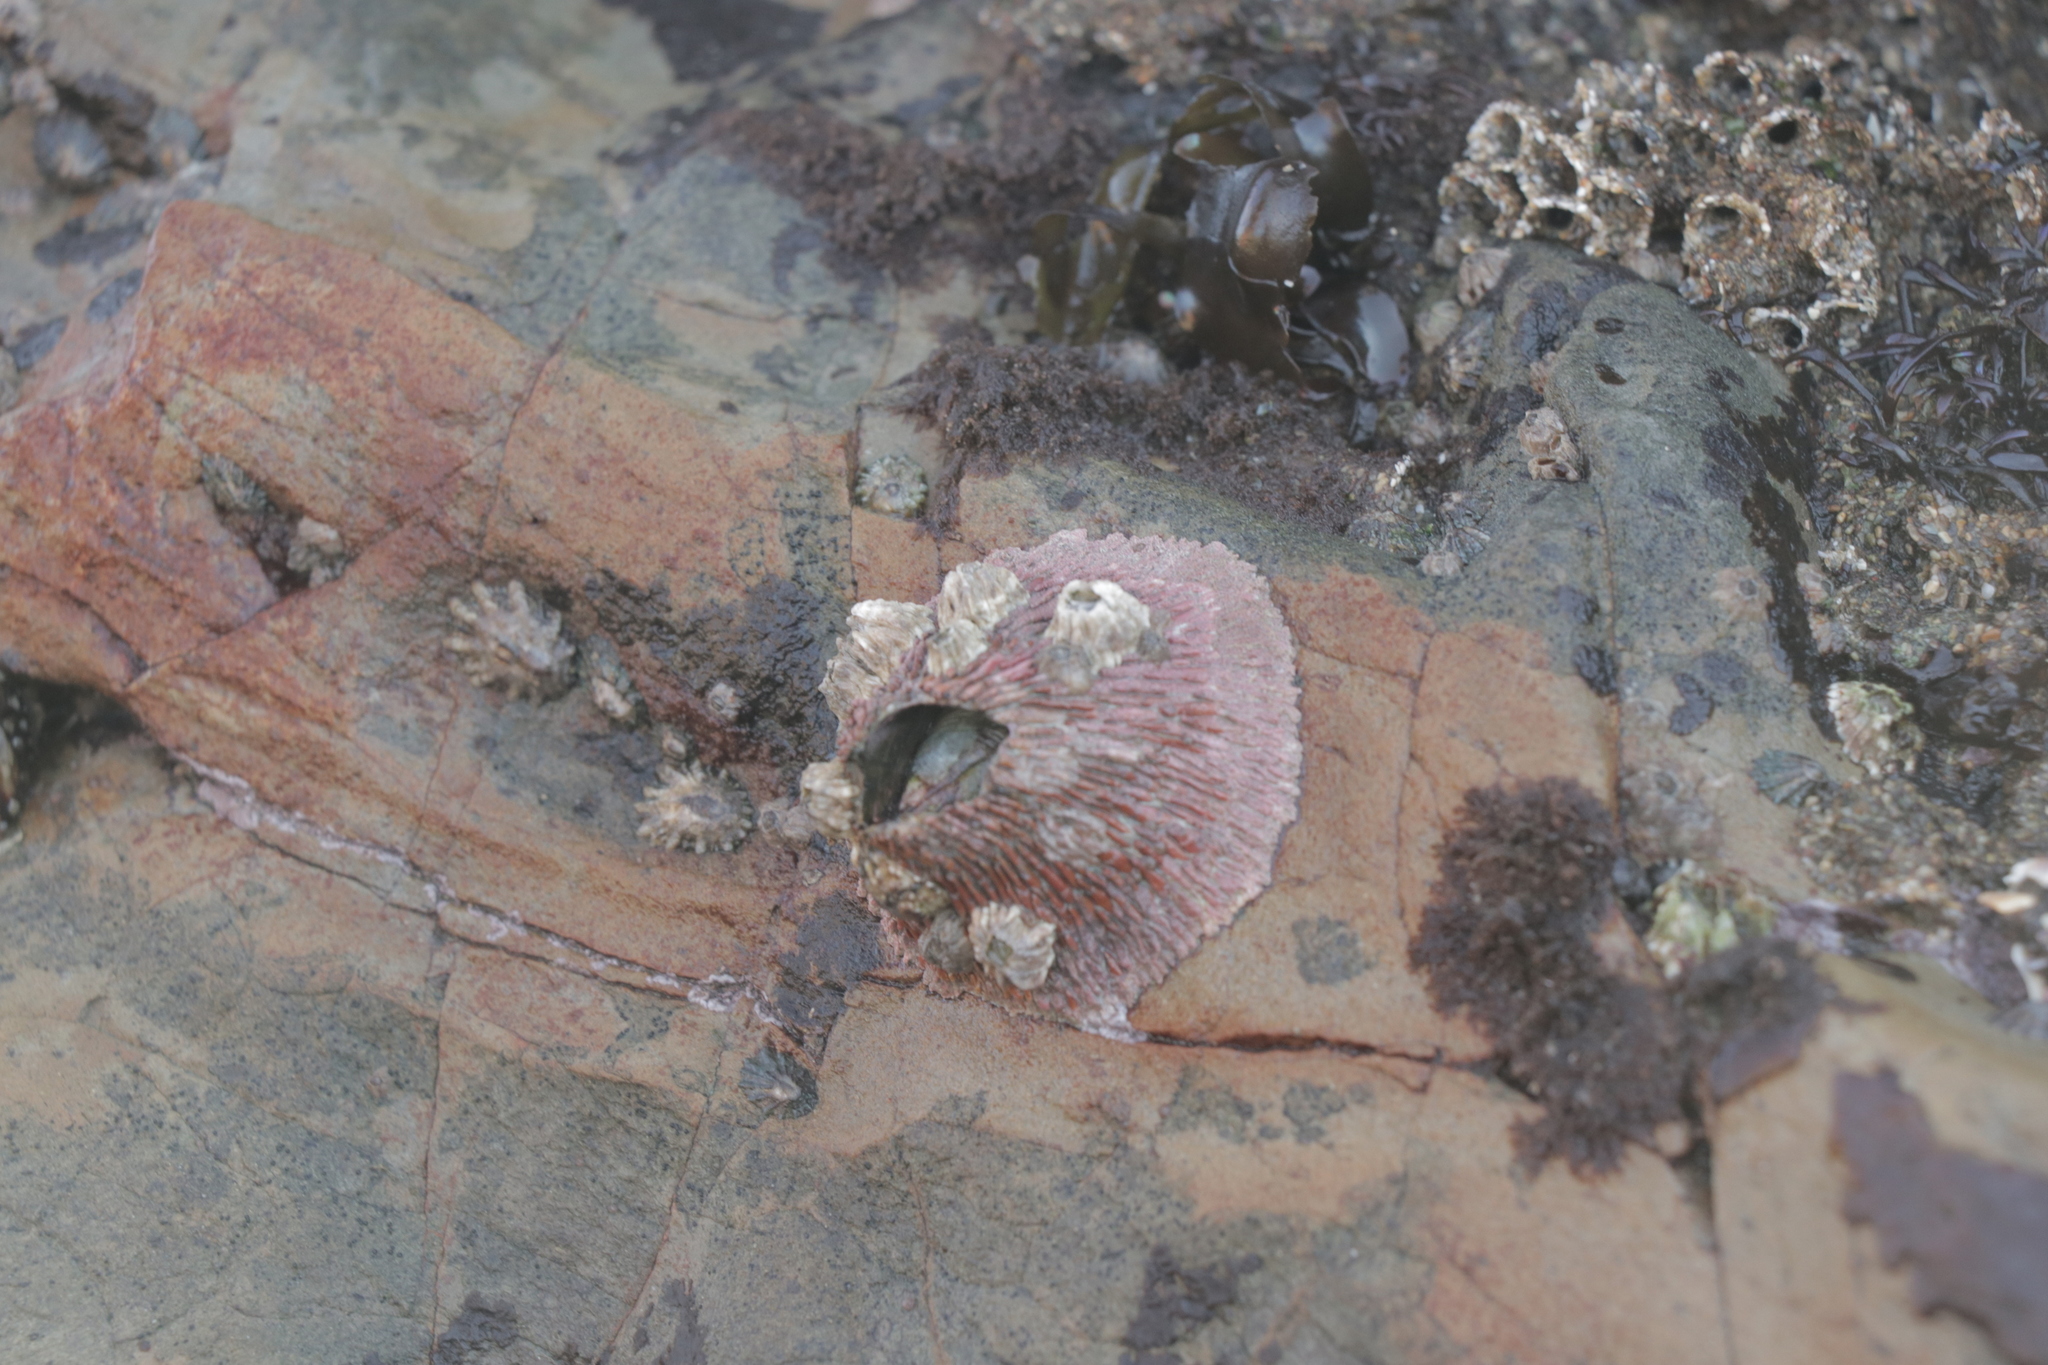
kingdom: Animalia
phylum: Arthropoda
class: Maxillopoda
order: Sessilia
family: Tetraclitidae
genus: Tetraclita
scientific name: Tetraclita rubescens
